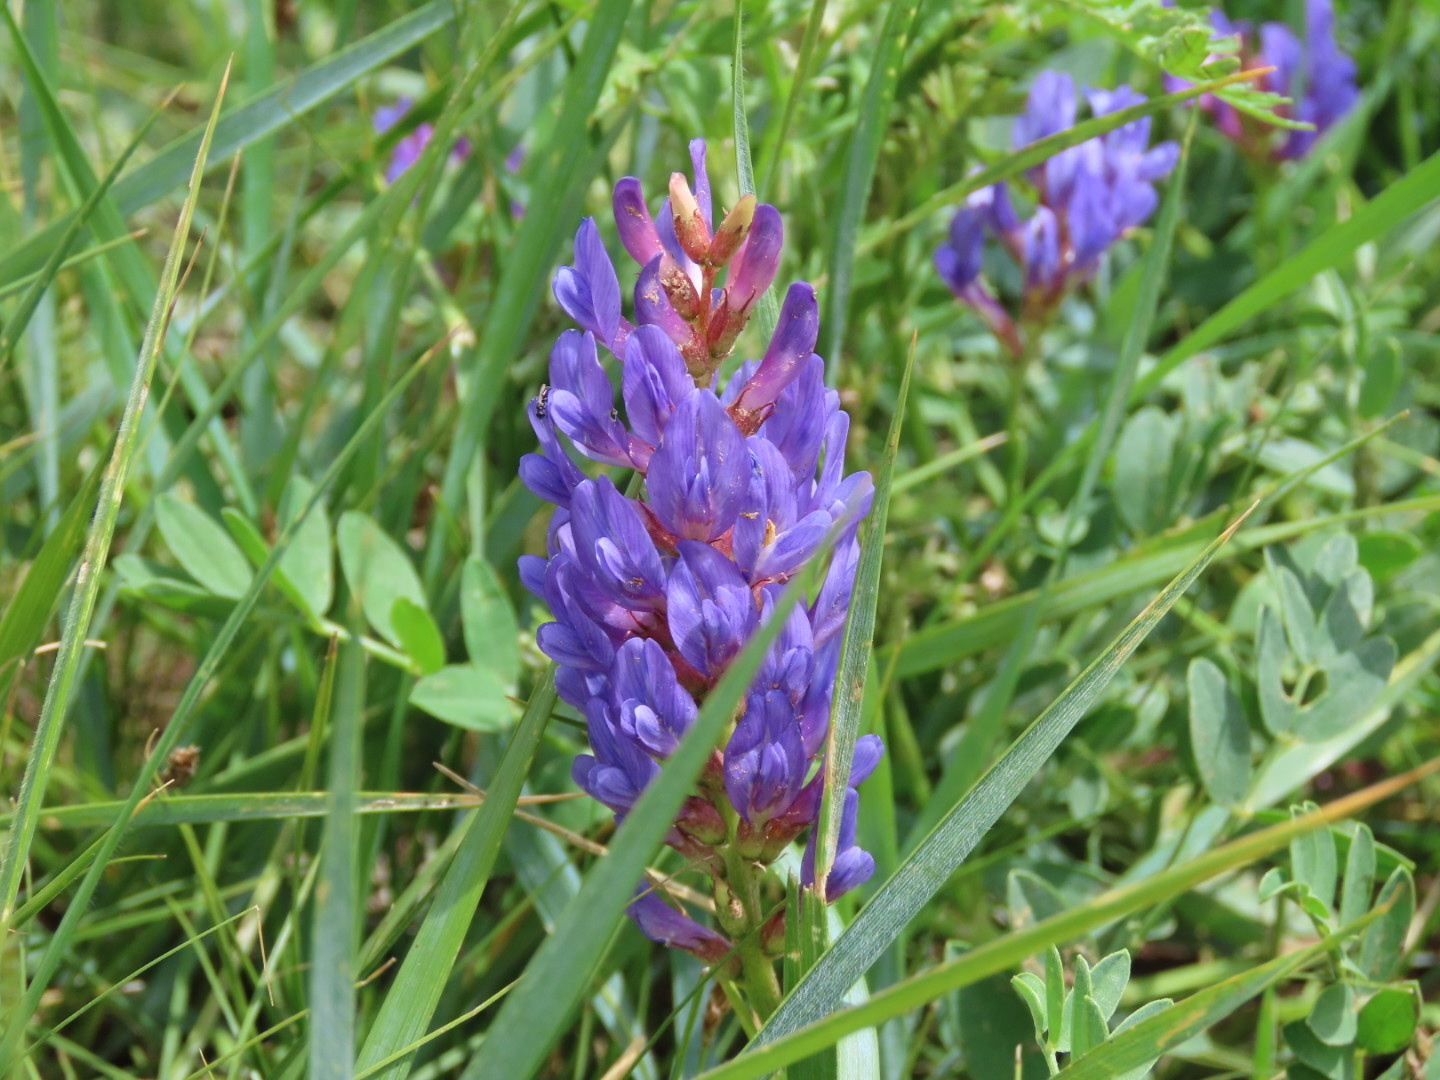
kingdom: Plantae
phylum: Tracheophyta
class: Magnoliopsida
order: Fabales
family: Fabaceae
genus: Astragalus
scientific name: Astragalus laxmannii
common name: Laxmann's milk-vetch
